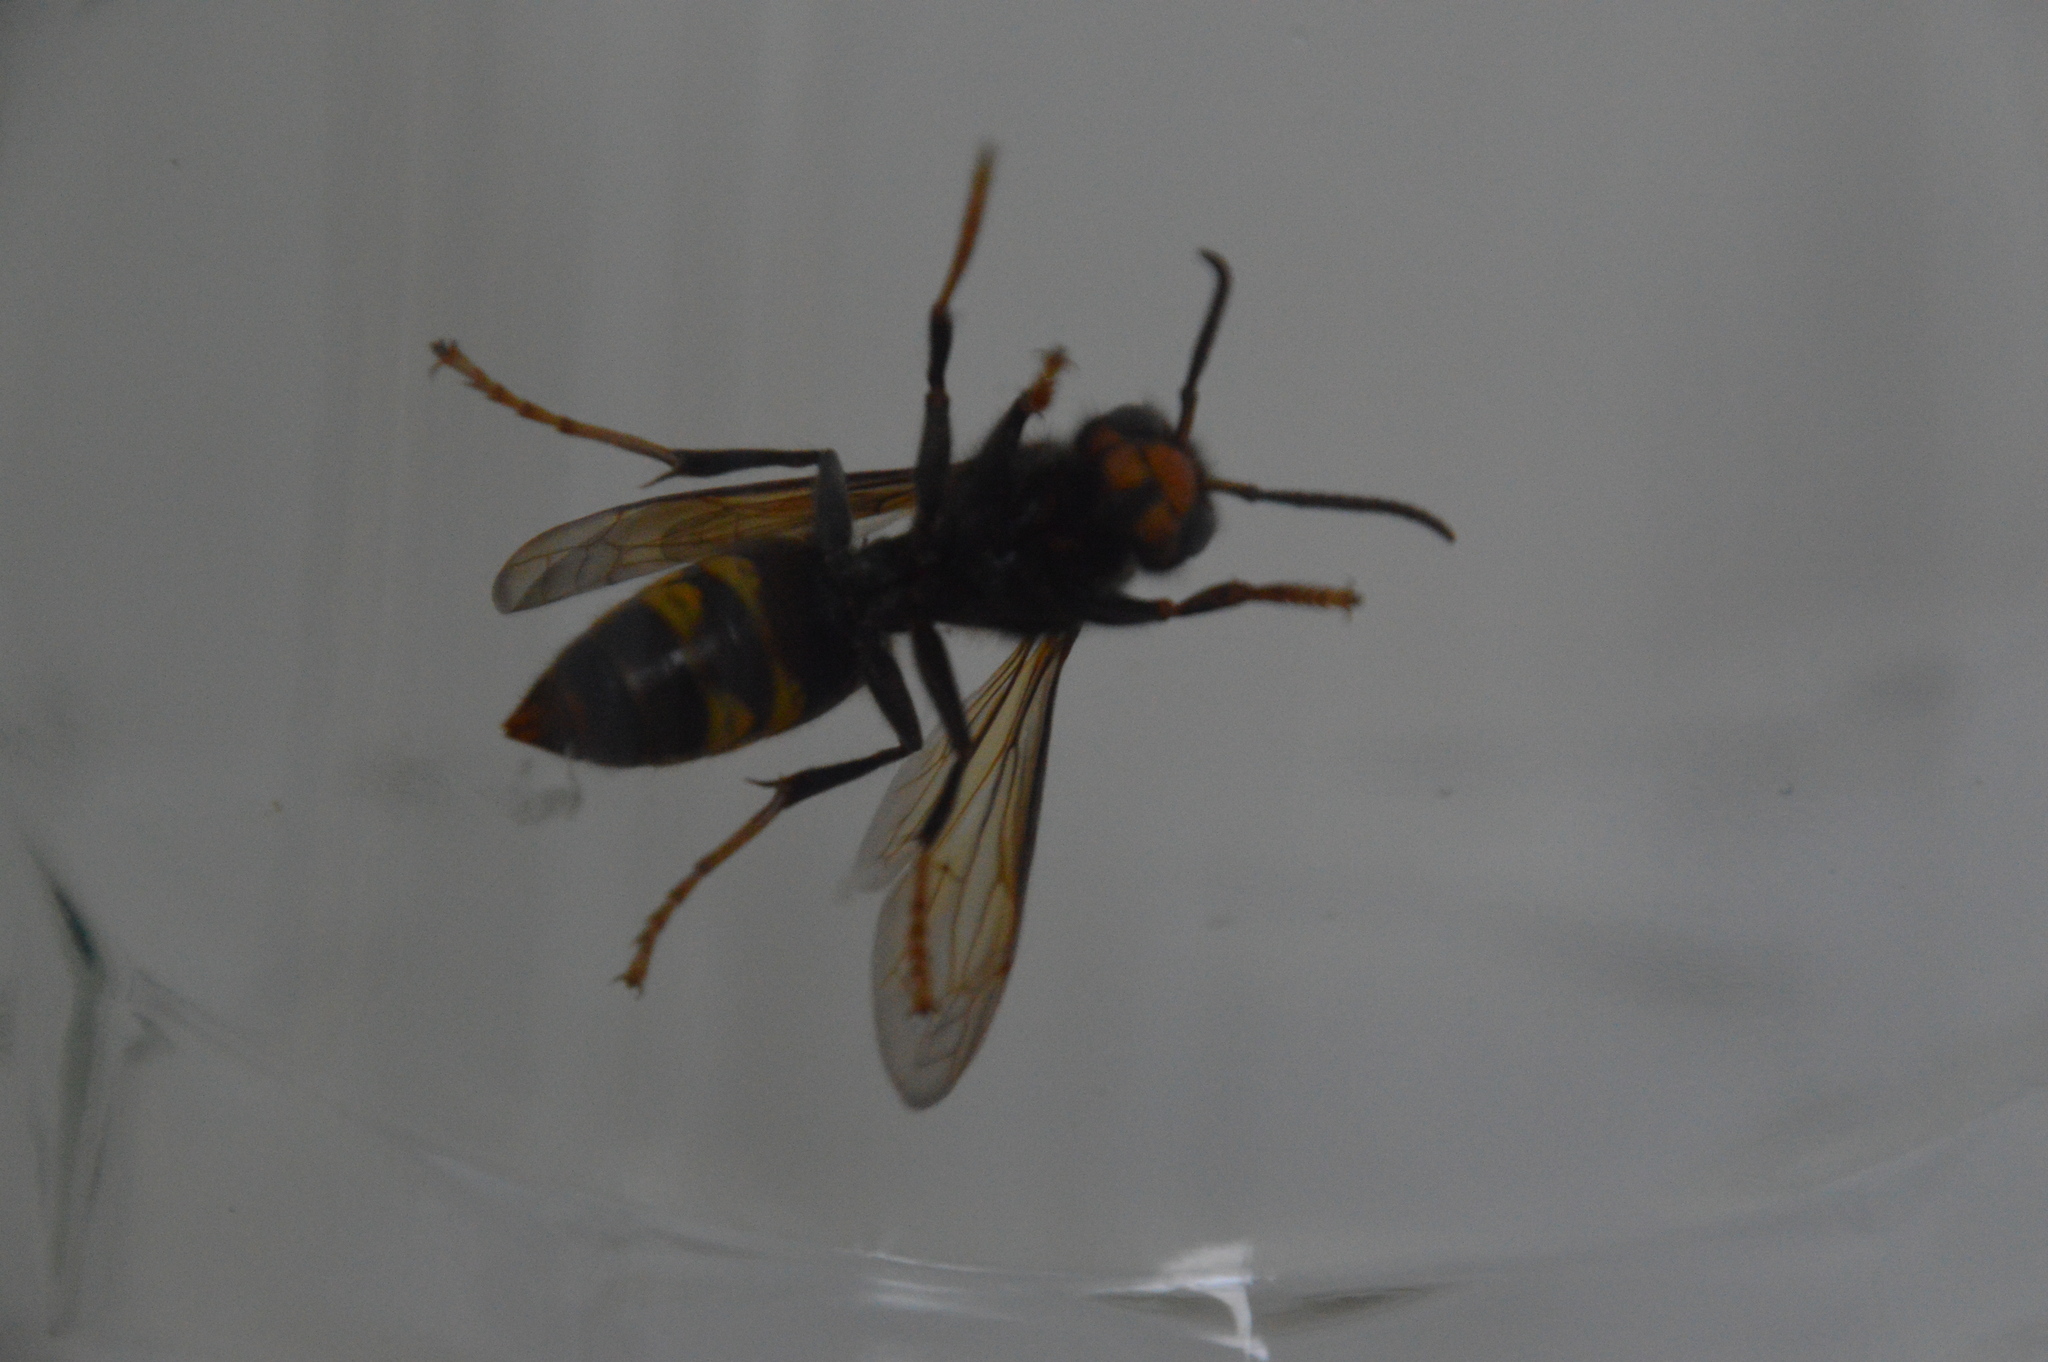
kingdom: Animalia
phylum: Arthropoda
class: Insecta
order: Hymenoptera
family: Vespidae
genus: Vespa
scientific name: Vespa velutina
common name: Asian hornet
